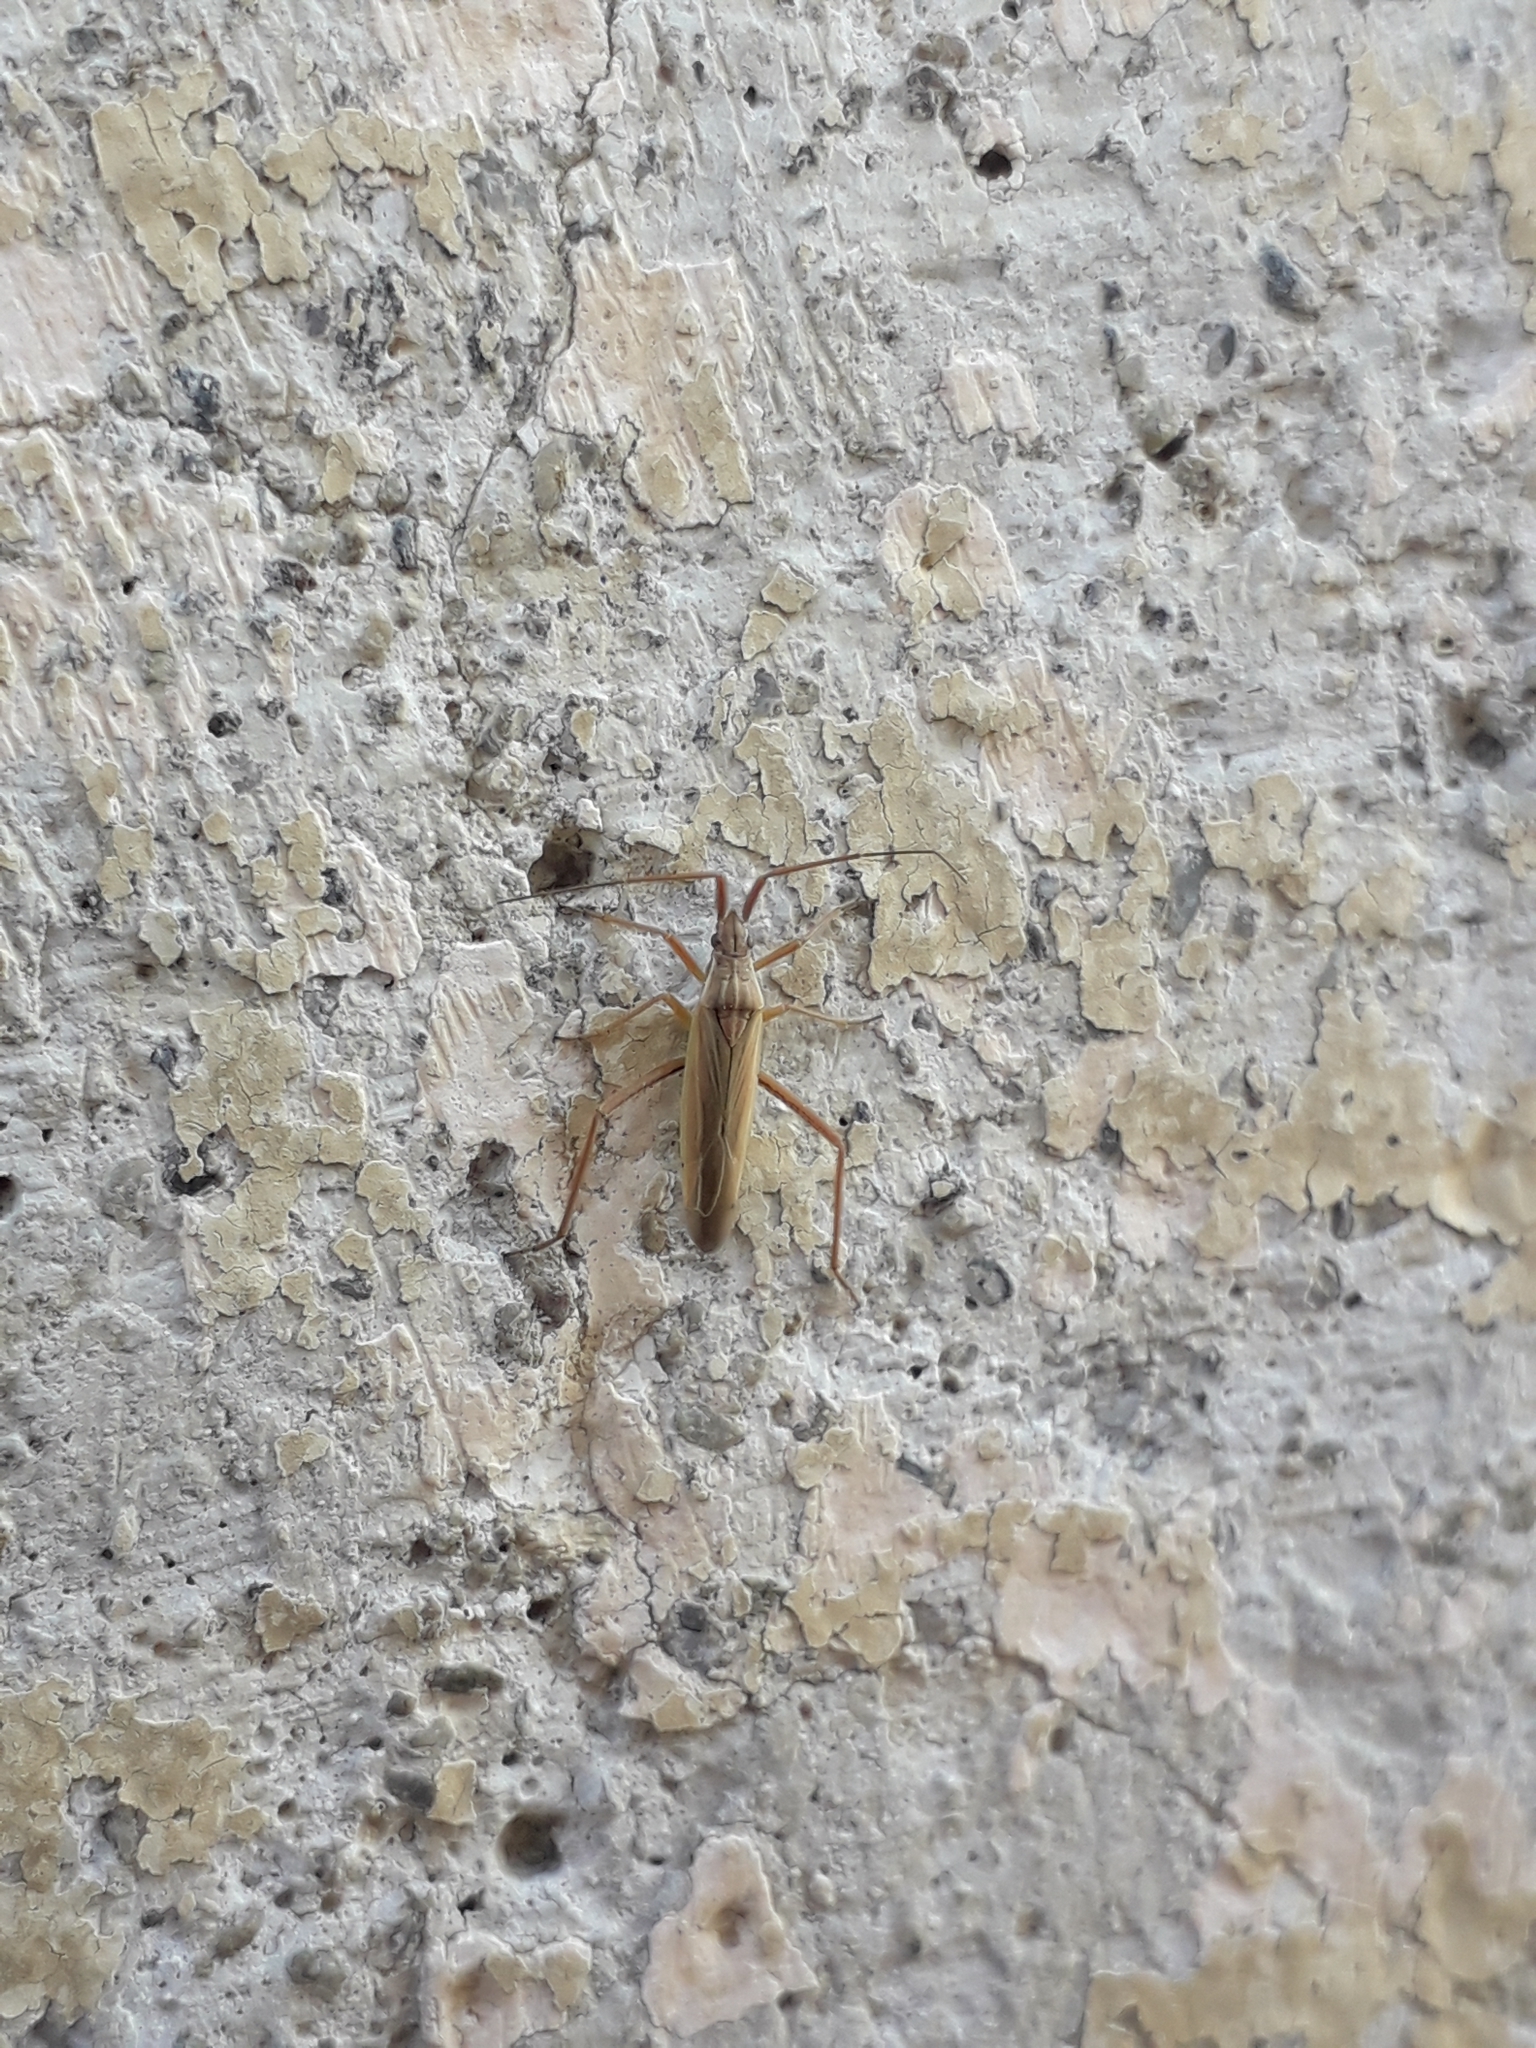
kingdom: Animalia
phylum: Arthropoda
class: Insecta
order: Hemiptera
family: Miridae
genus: Notostira
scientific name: Notostira elongata
